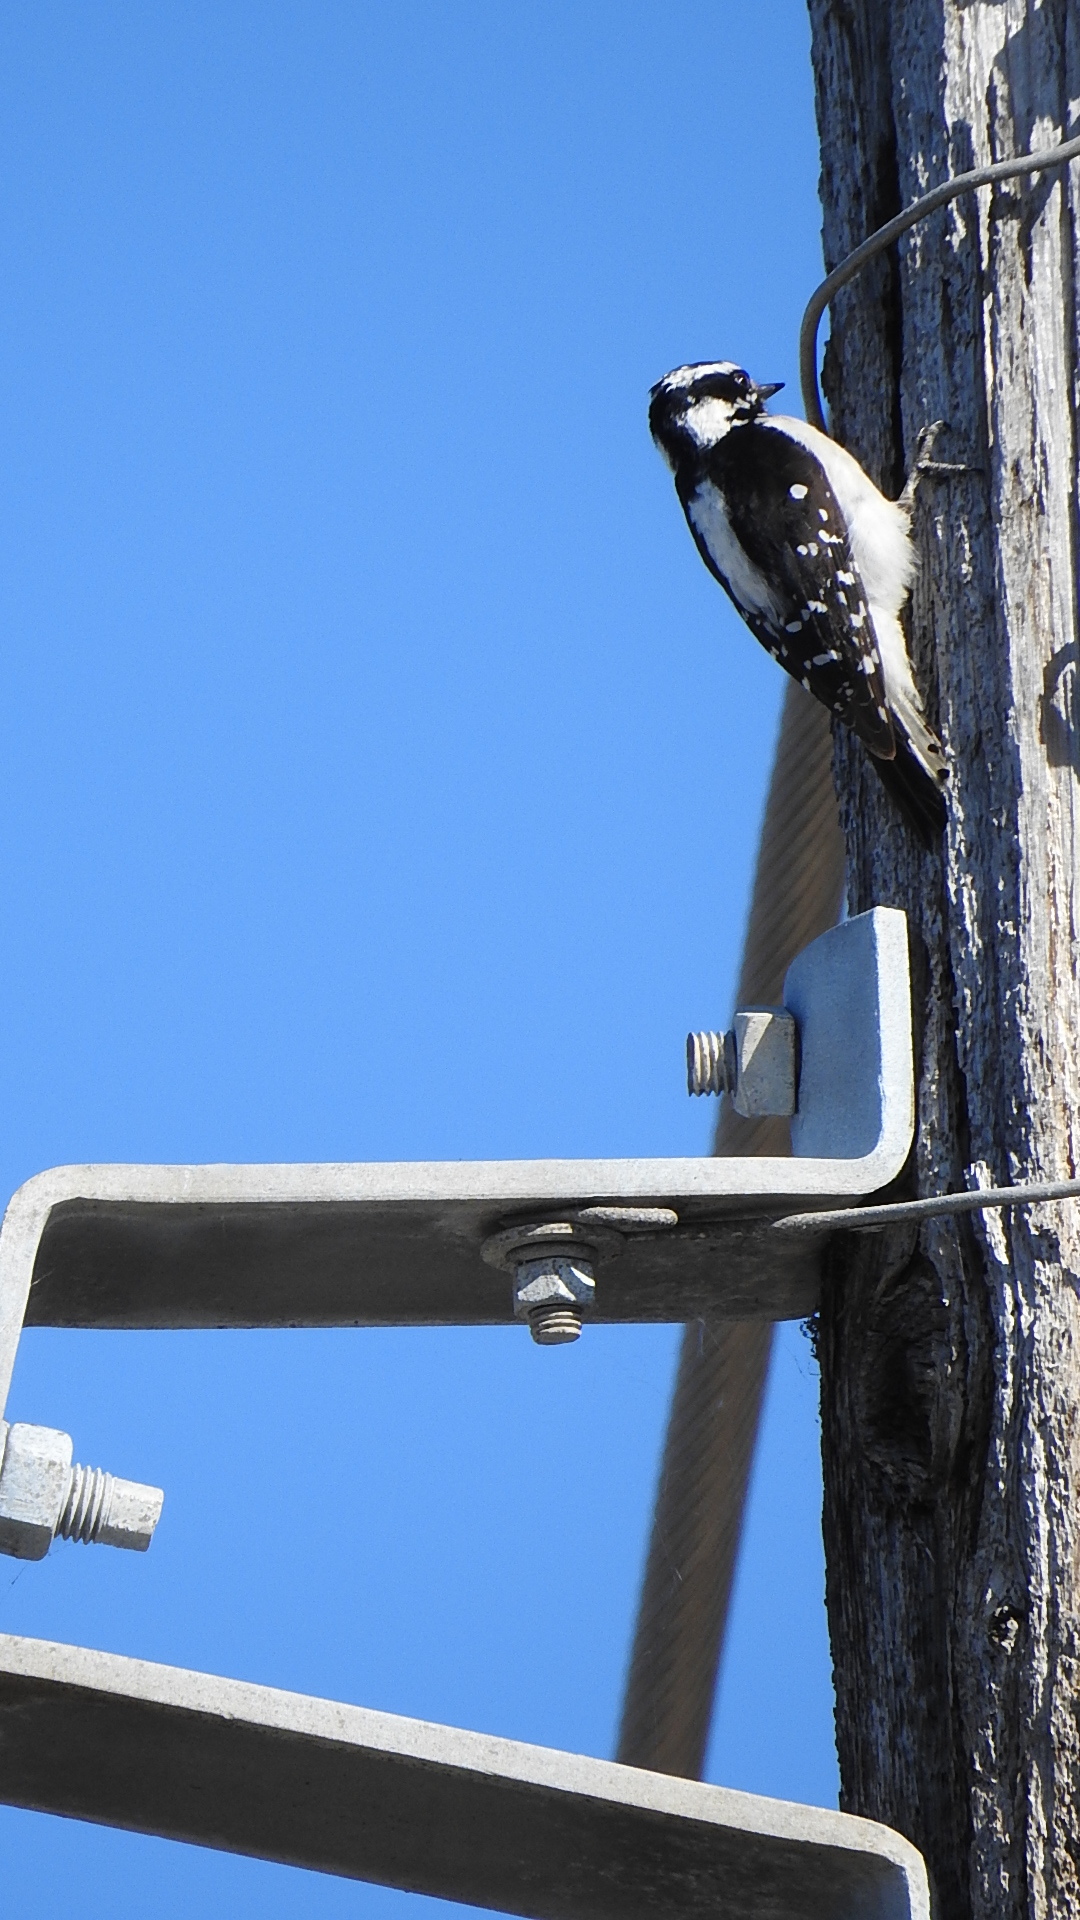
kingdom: Animalia
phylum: Chordata
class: Aves
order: Piciformes
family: Picidae
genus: Leuconotopicus
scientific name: Leuconotopicus villosus
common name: Hairy woodpecker
